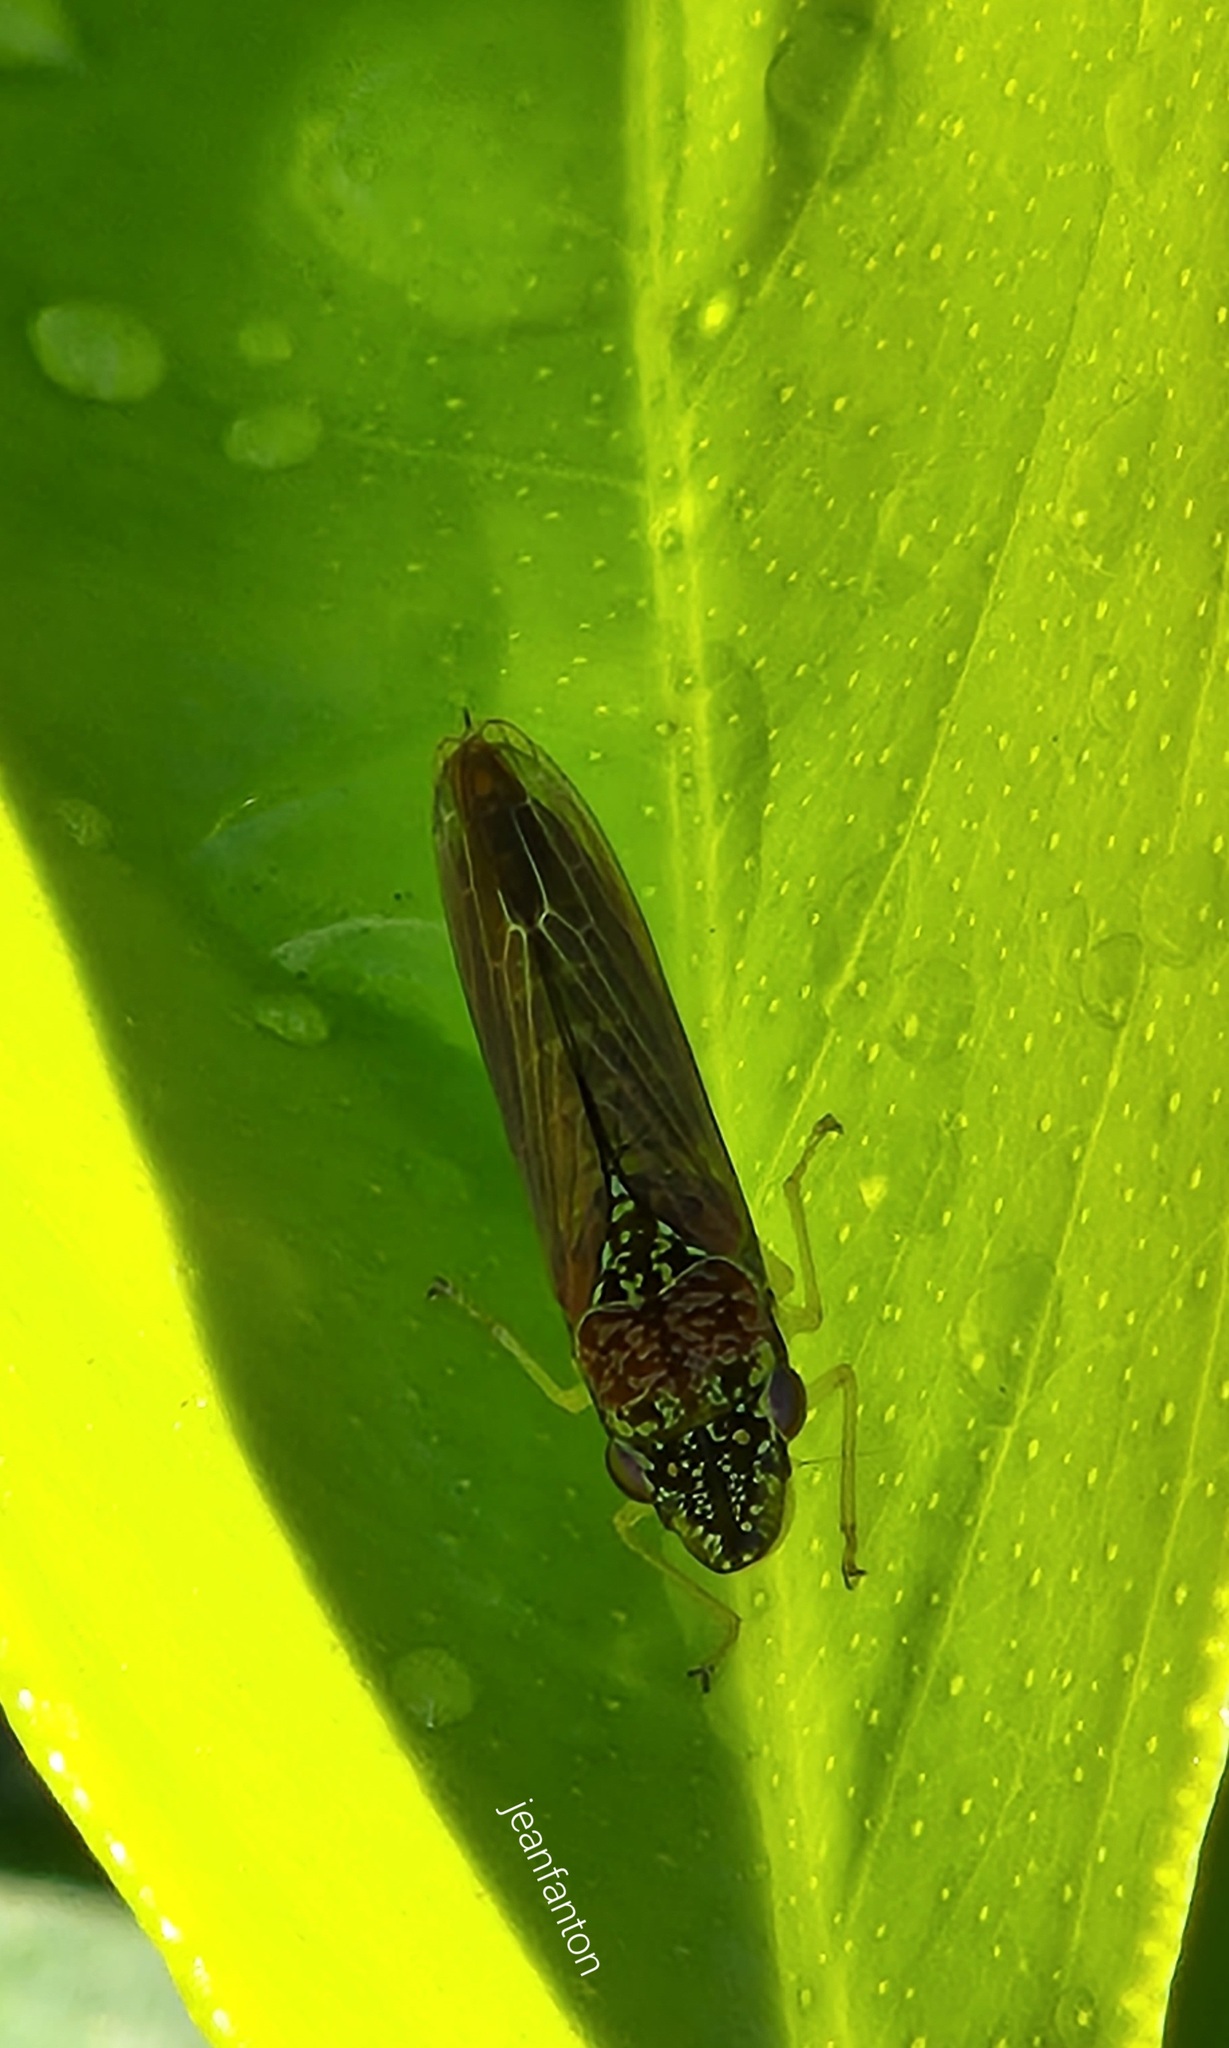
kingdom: Animalia
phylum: Arthropoda
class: Insecta
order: Hemiptera
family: Cicadellidae
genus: Acrogonia
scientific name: Acrogonia citrina
